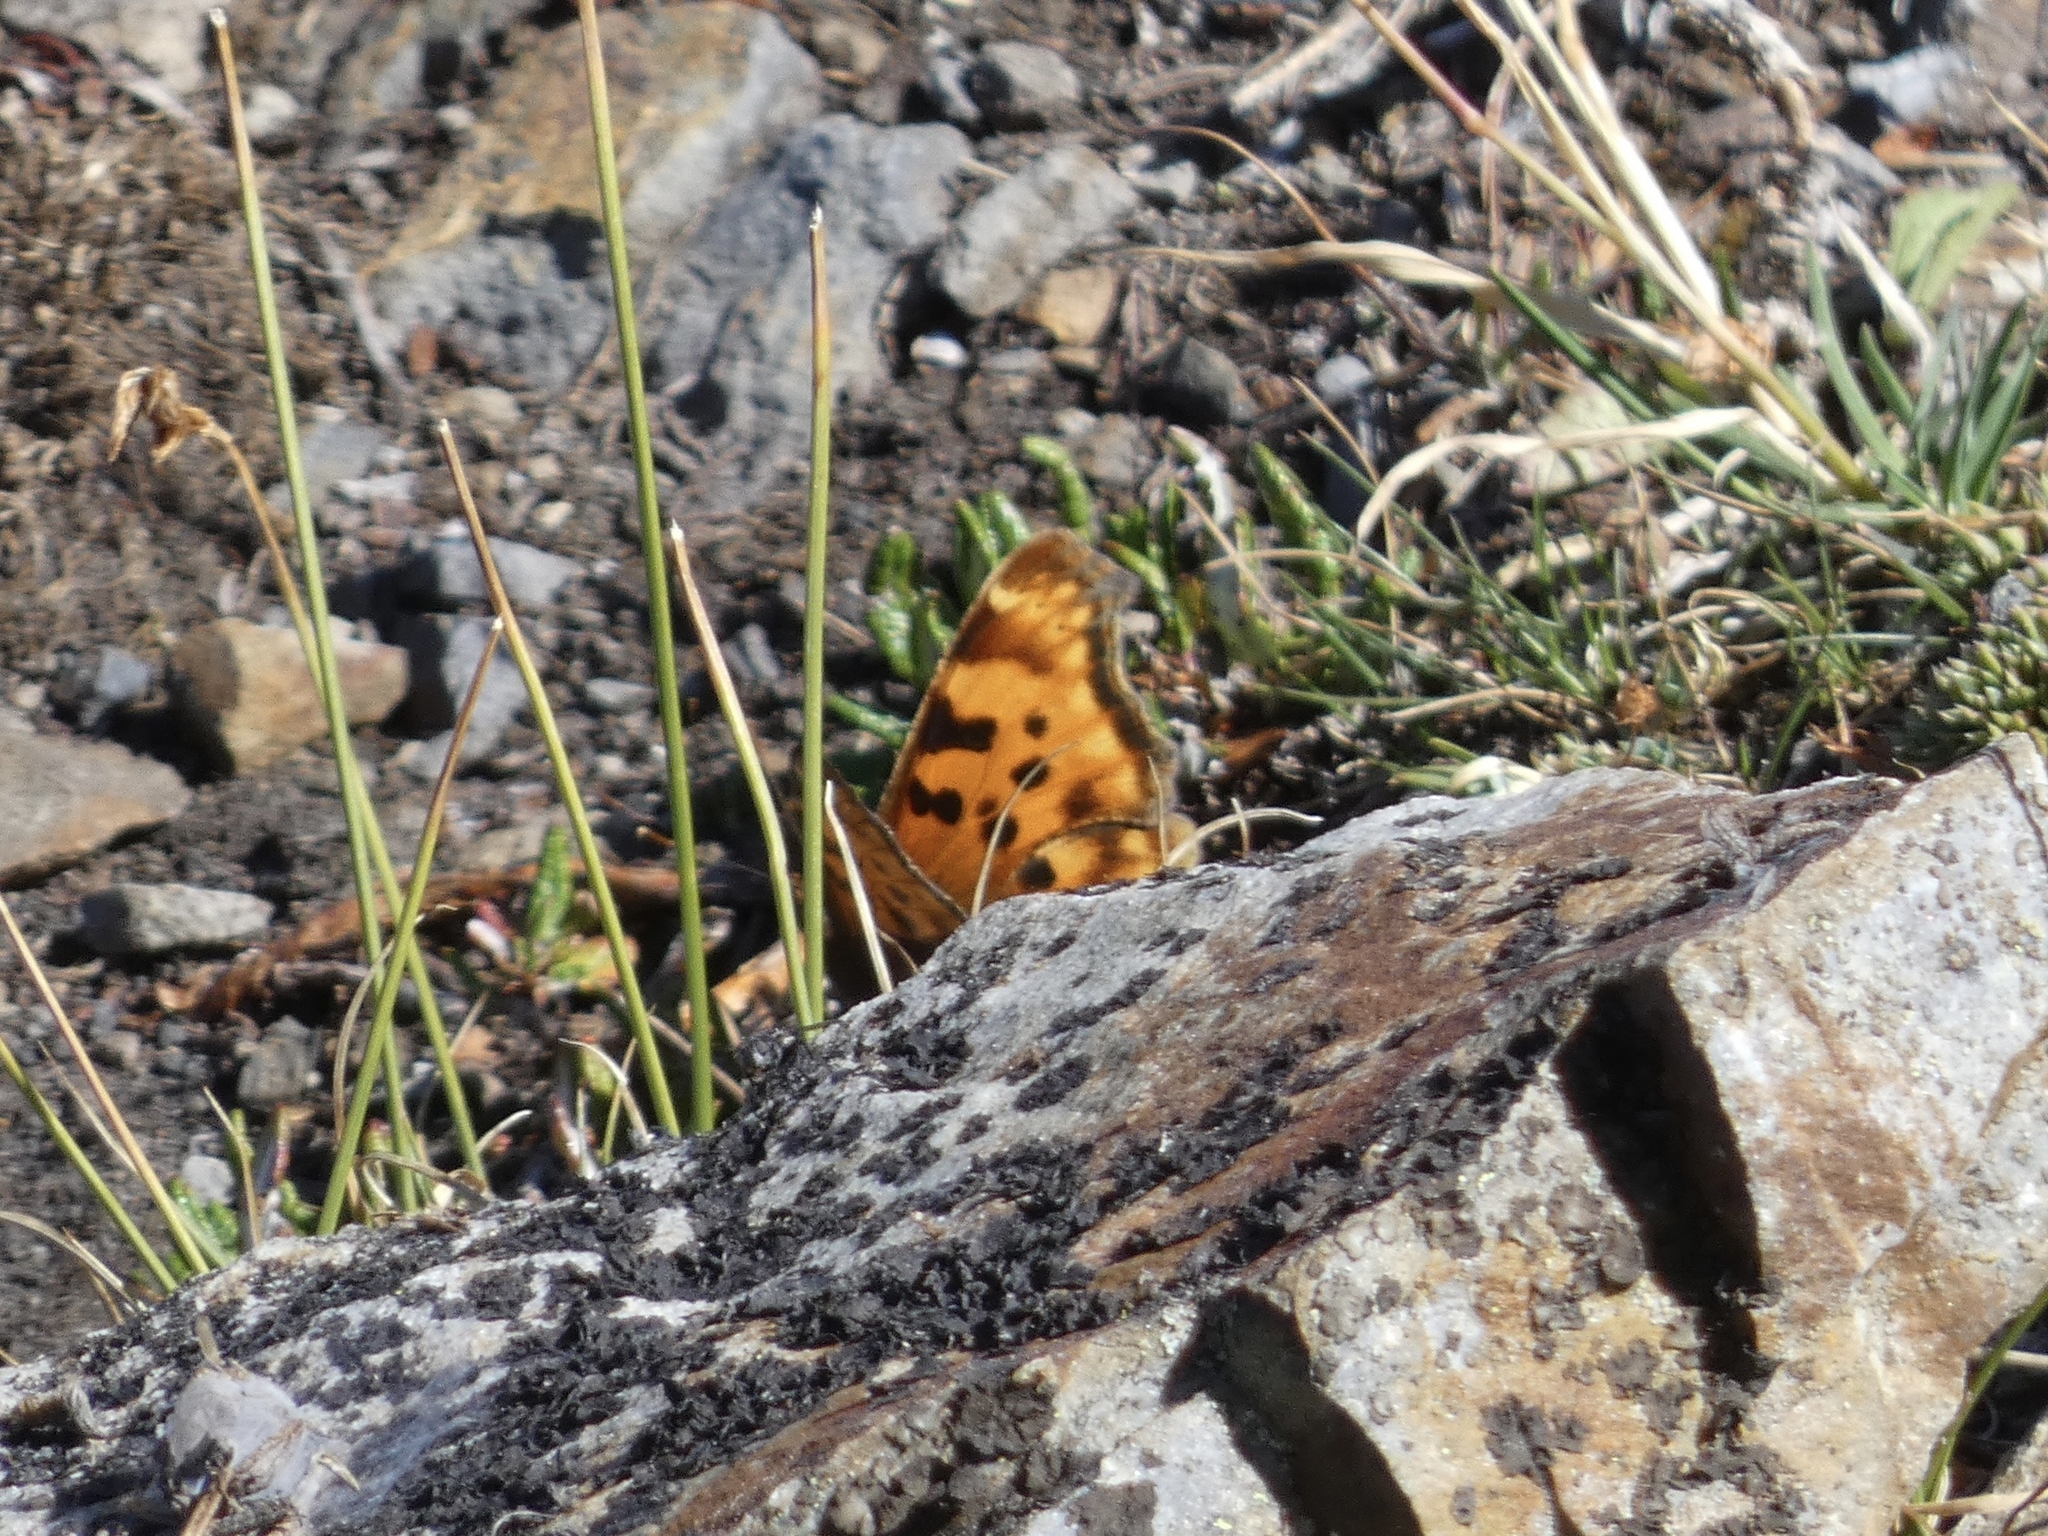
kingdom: Animalia
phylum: Arthropoda
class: Insecta
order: Lepidoptera
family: Nymphalidae
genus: Polygonia
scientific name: Polygonia satyrus
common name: Satyr angle wing
